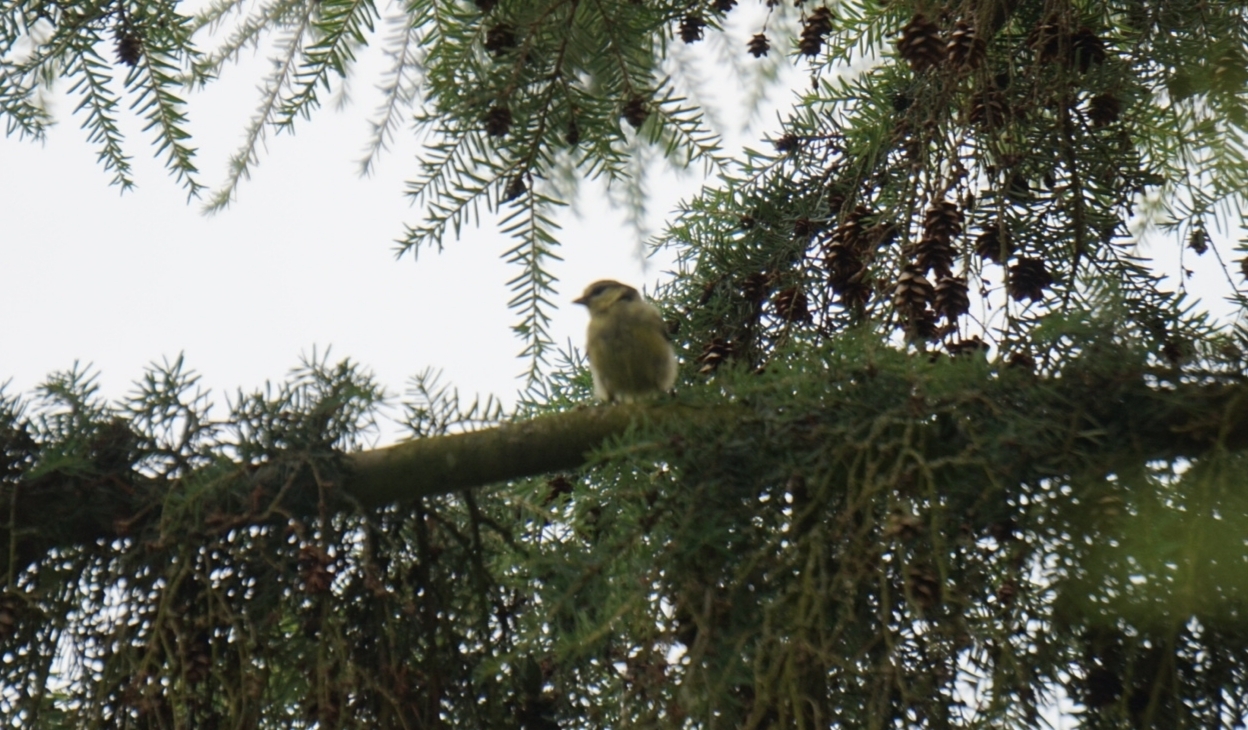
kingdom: Animalia
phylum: Chordata
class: Aves
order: Passeriformes
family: Paridae
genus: Cyanistes
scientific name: Cyanistes caeruleus
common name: Eurasian blue tit
